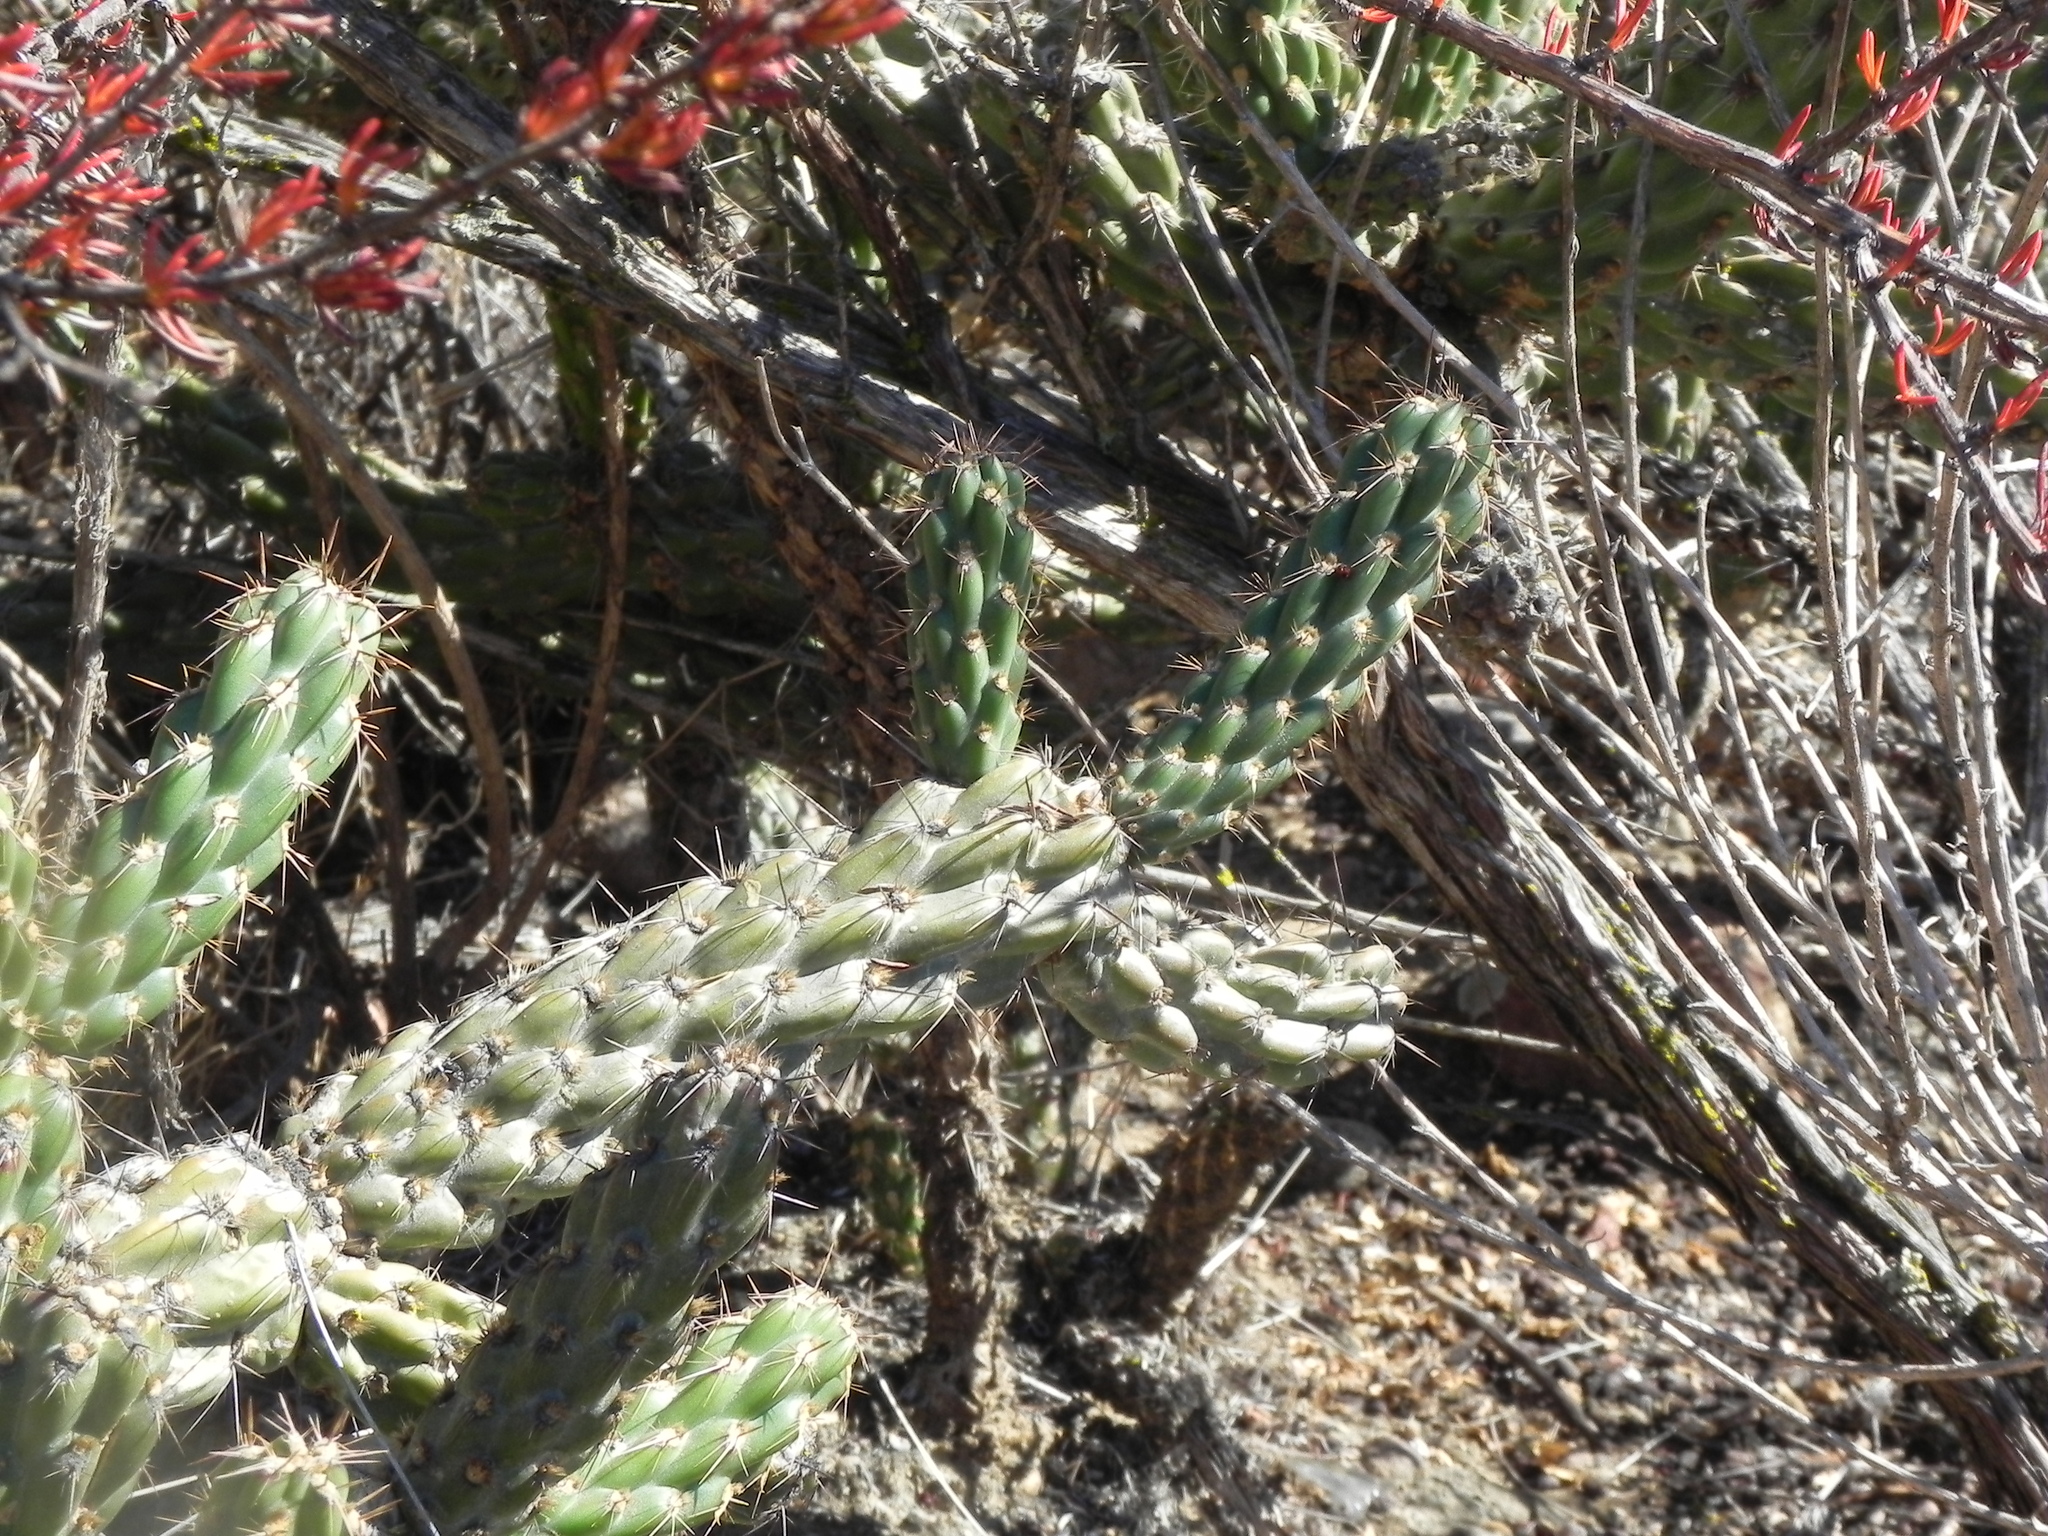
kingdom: Plantae
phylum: Tracheophyta
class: Magnoliopsida
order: Caryophyllales
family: Cactaceae
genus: Cylindropuntia
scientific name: Cylindropuntia californica
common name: Snake cholla
